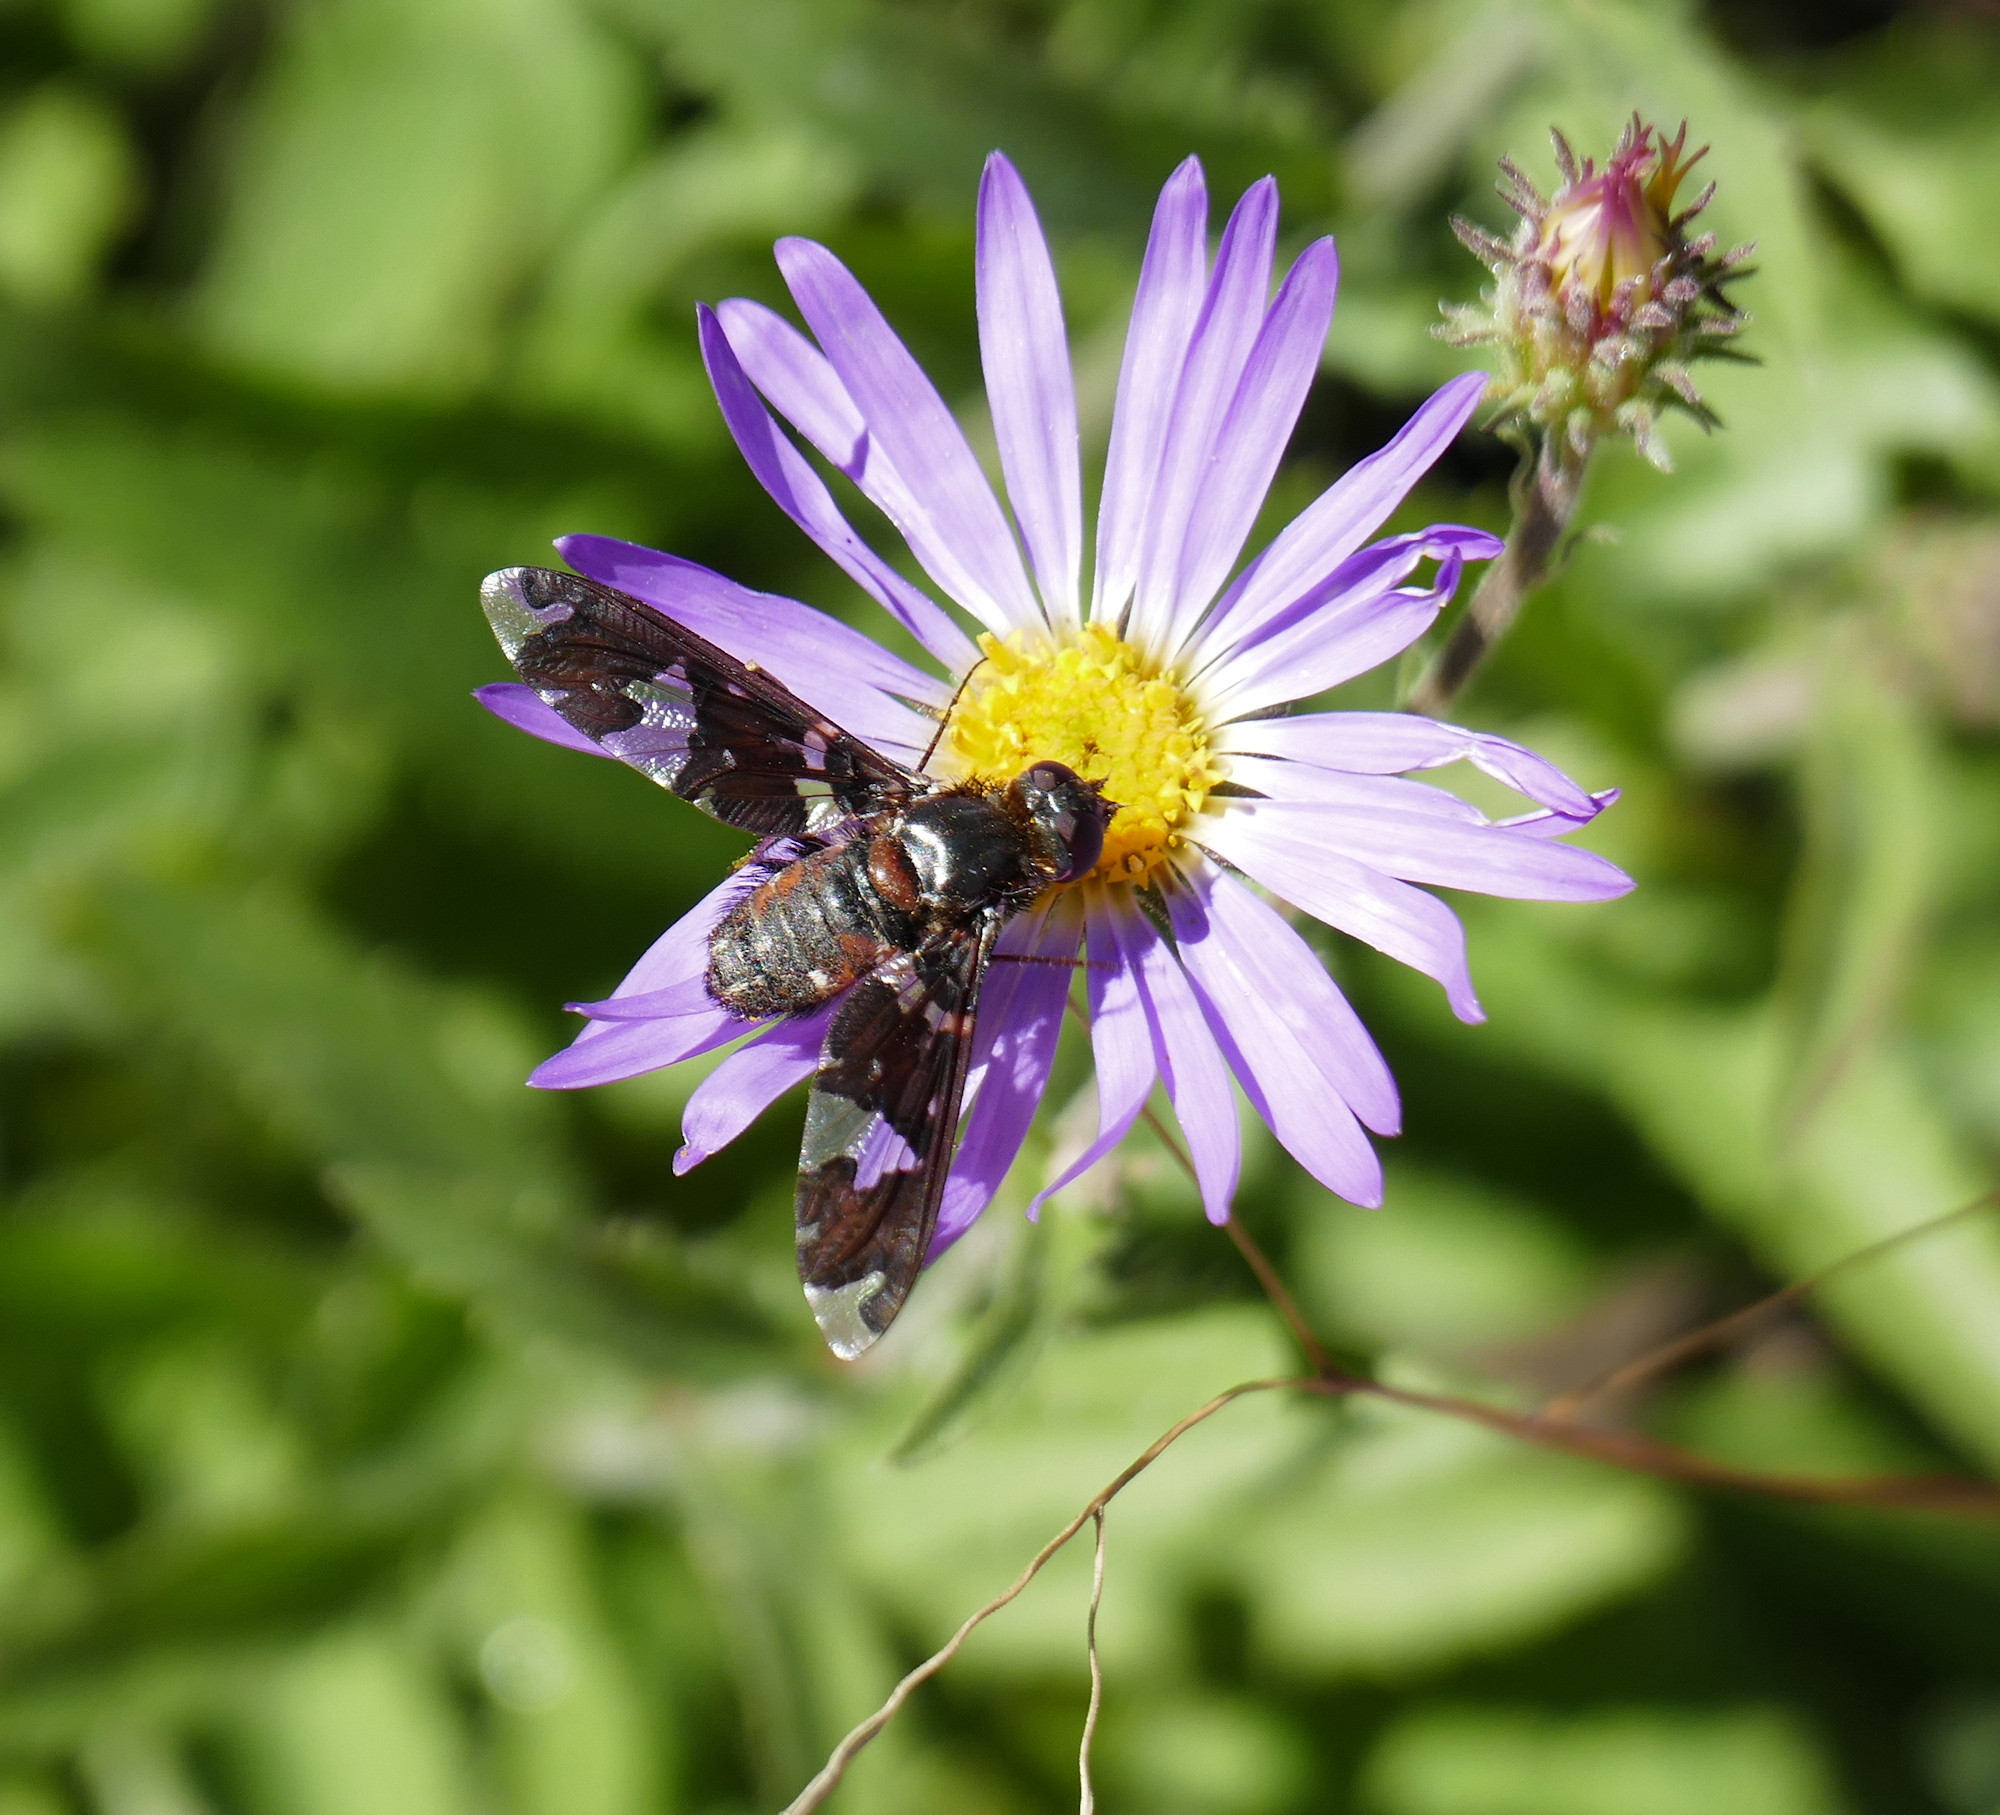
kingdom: Animalia
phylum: Arthropoda
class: Insecta
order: Diptera
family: Bombyliidae
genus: Exoprosopa
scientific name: Exoprosopa dorcadion
